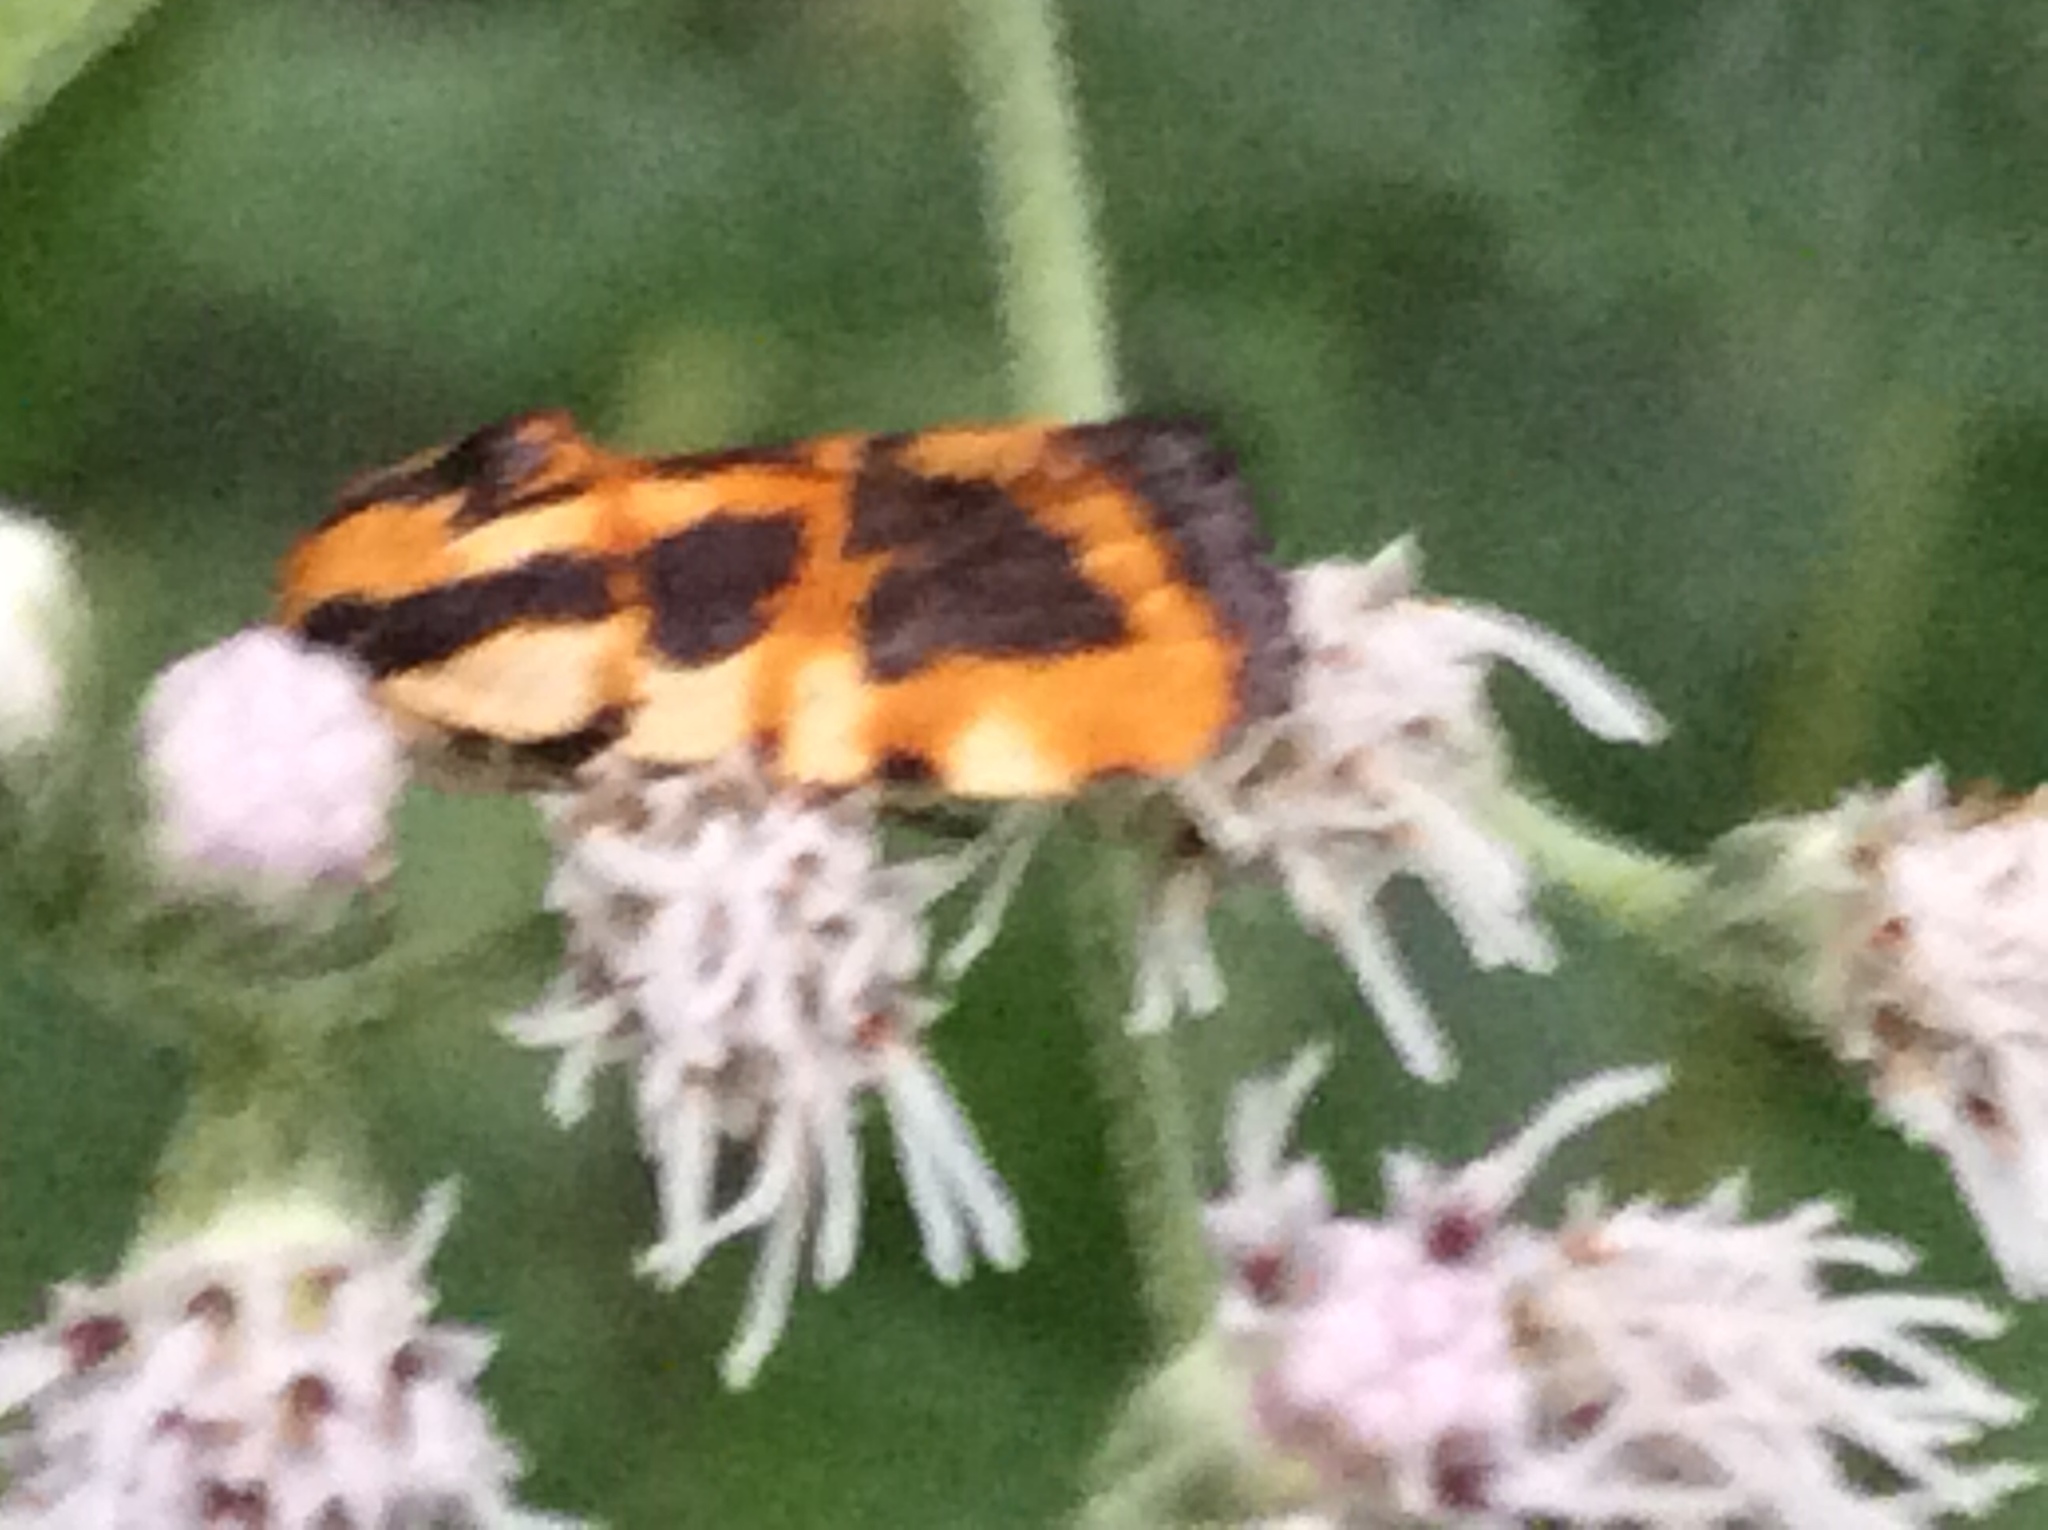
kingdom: Animalia
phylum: Arthropoda
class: Insecta
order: Lepidoptera
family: Noctuidae
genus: Acontia
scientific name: Acontia leo
